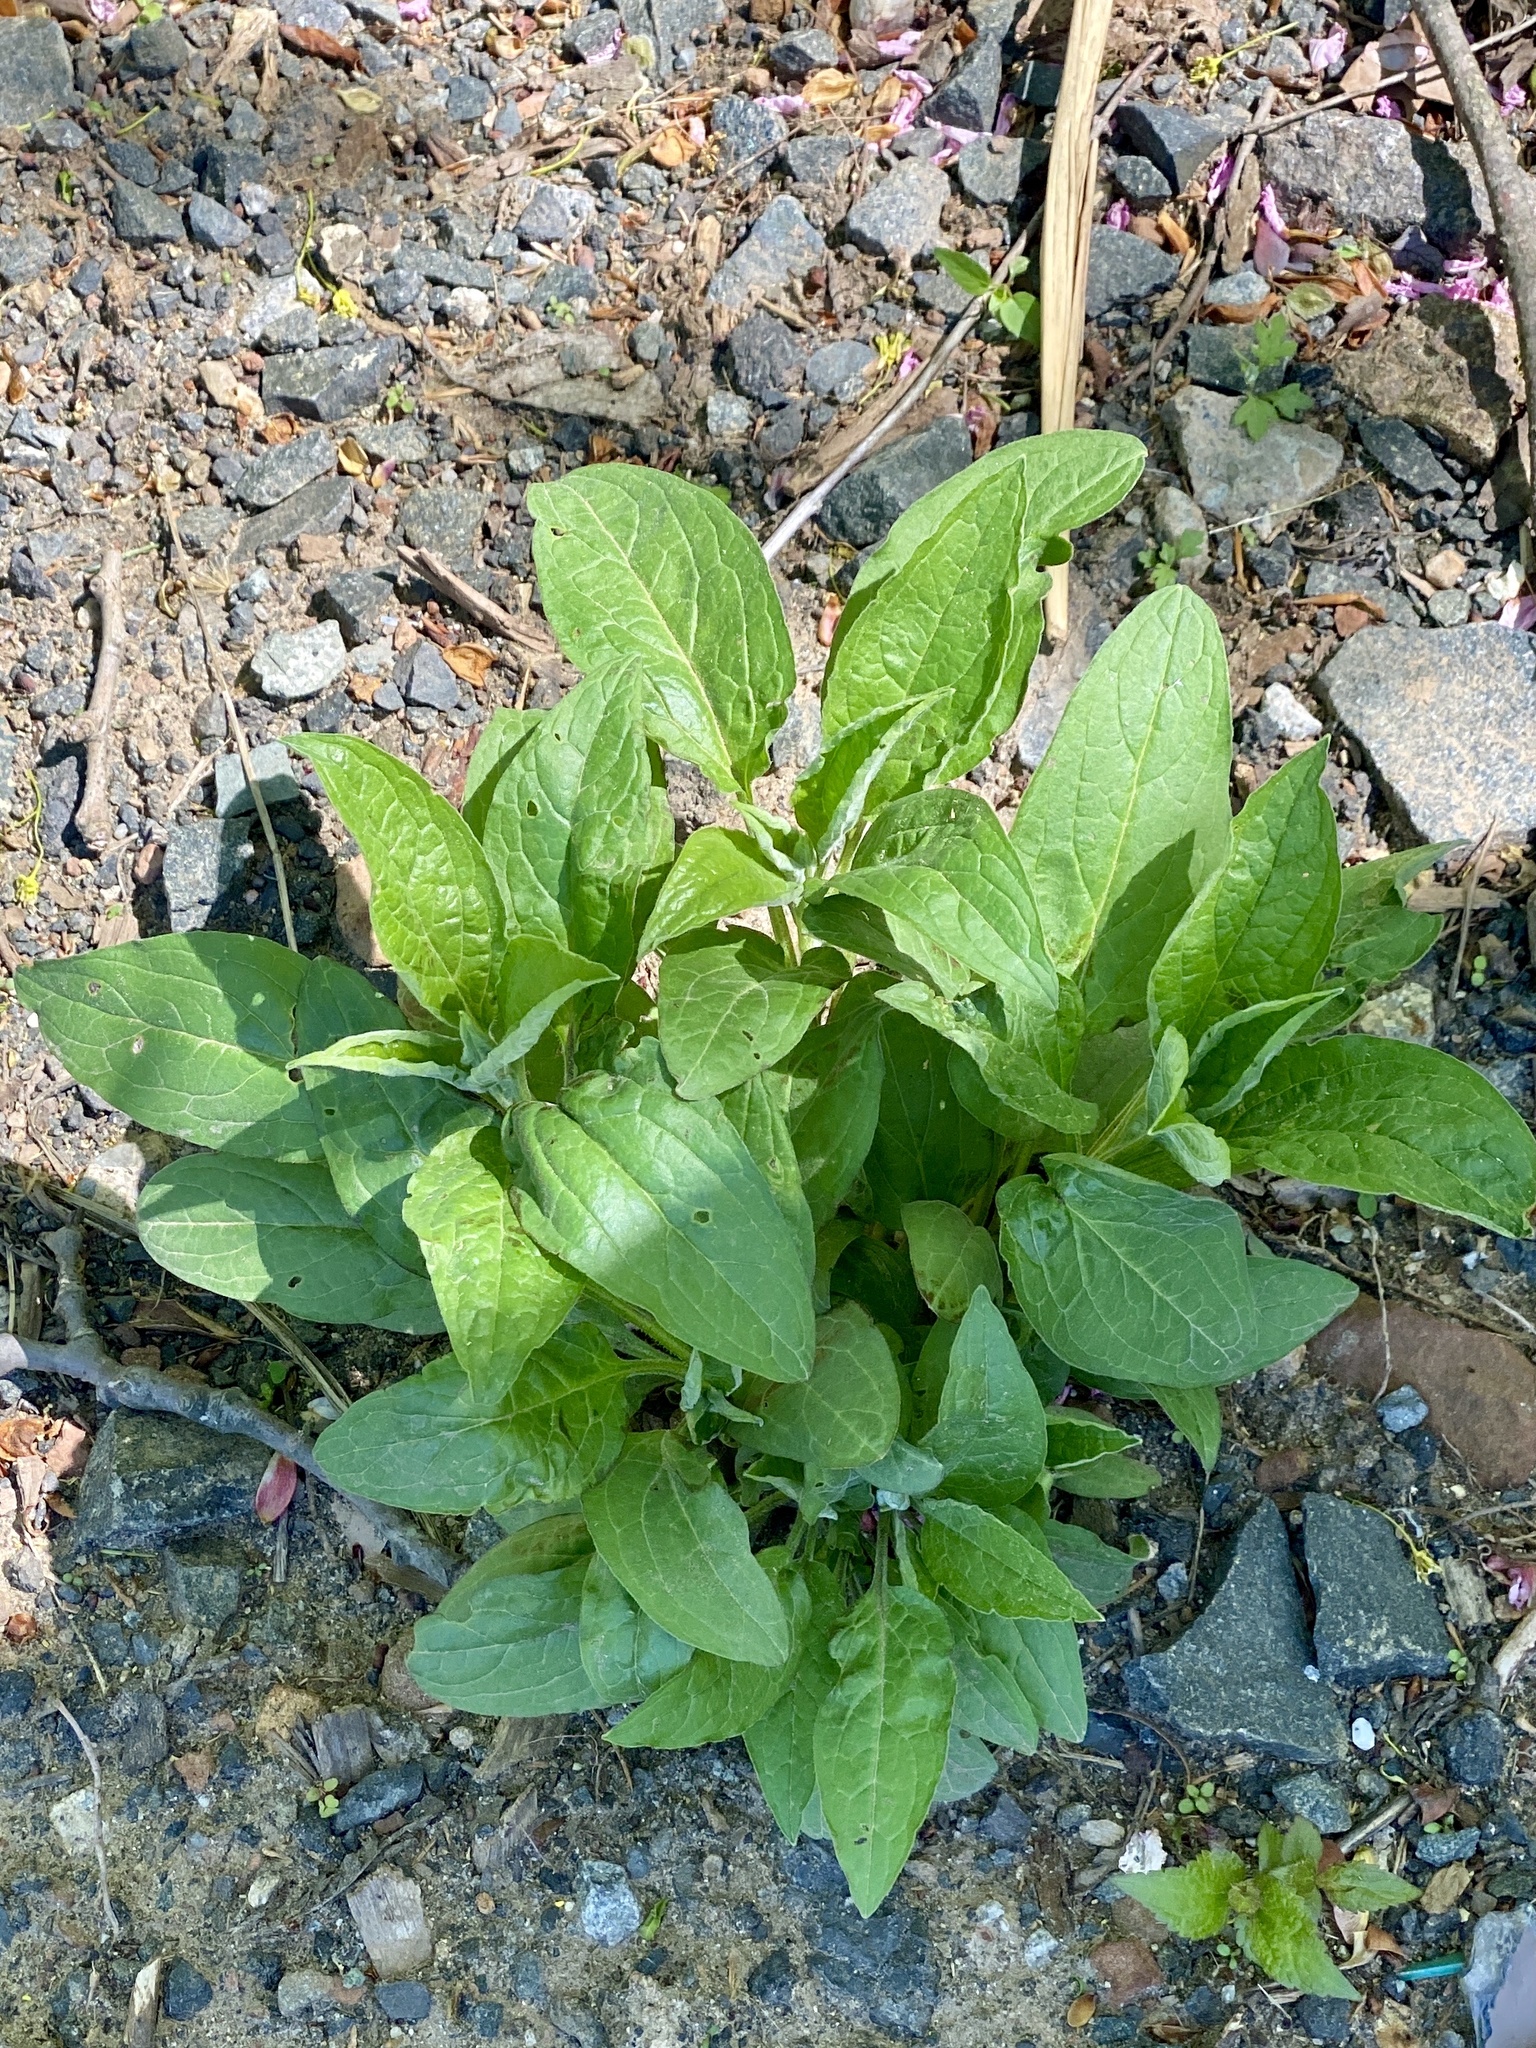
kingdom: Plantae
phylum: Tracheophyta
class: Magnoliopsida
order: Boraginales
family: Boraginaceae
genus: Hackelia
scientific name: Hackelia virginiana
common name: Beggar's-lice
